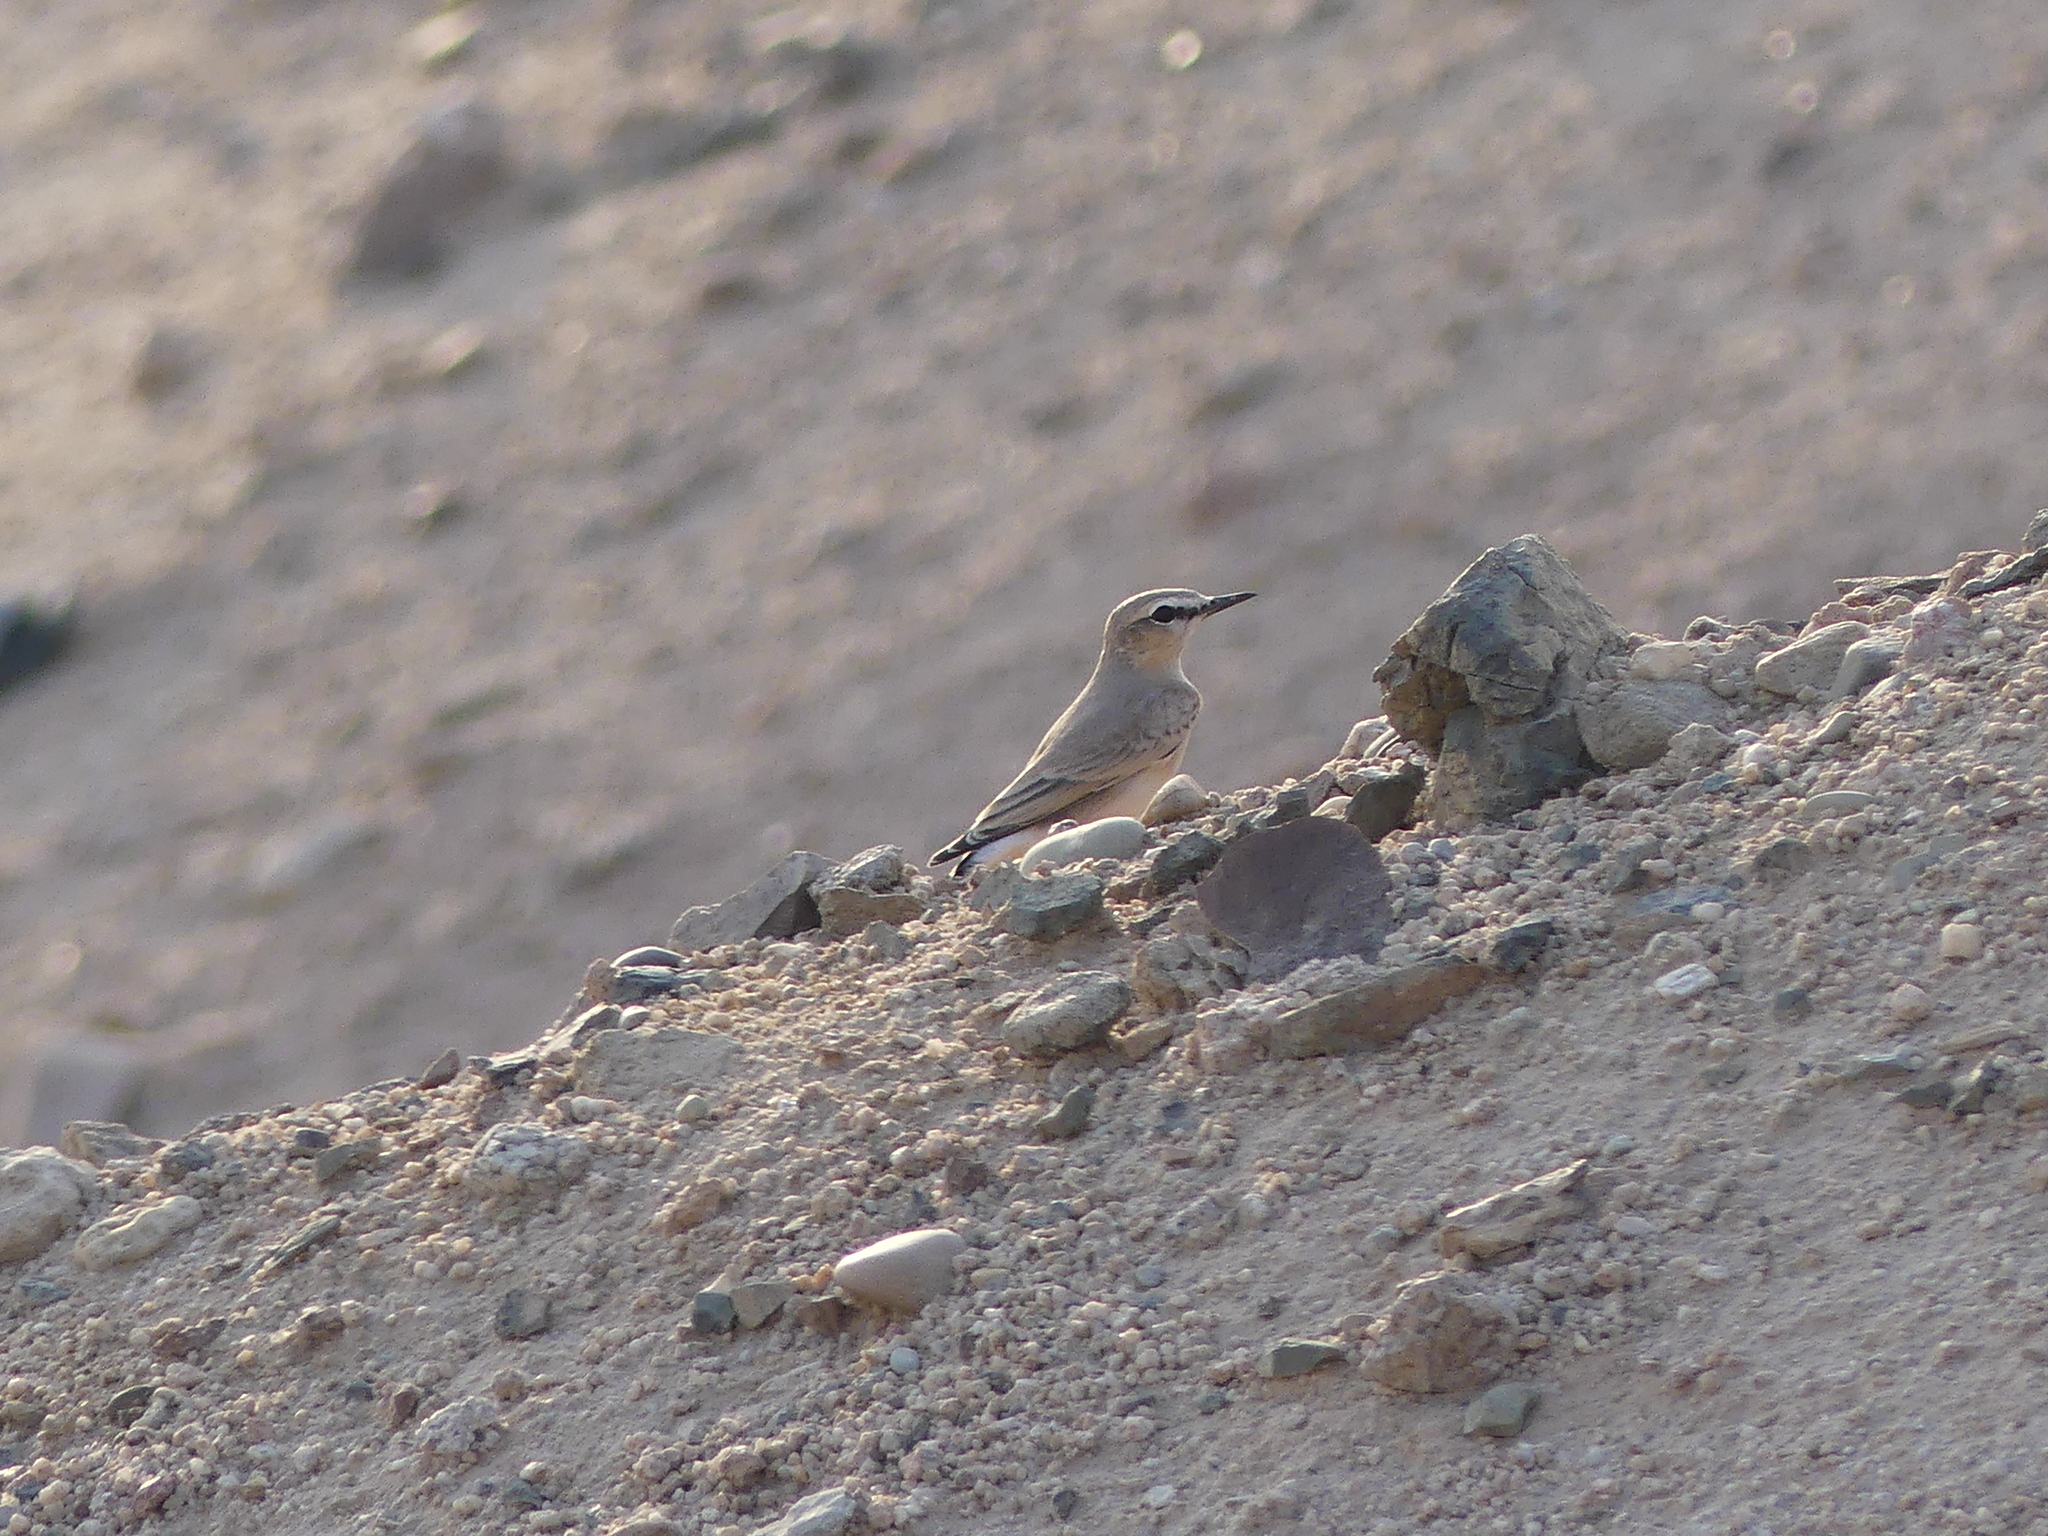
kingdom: Animalia
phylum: Chordata
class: Aves
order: Passeriformes
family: Muscicapidae
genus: Oenanthe
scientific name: Oenanthe isabellina
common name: Isabelline wheatear
